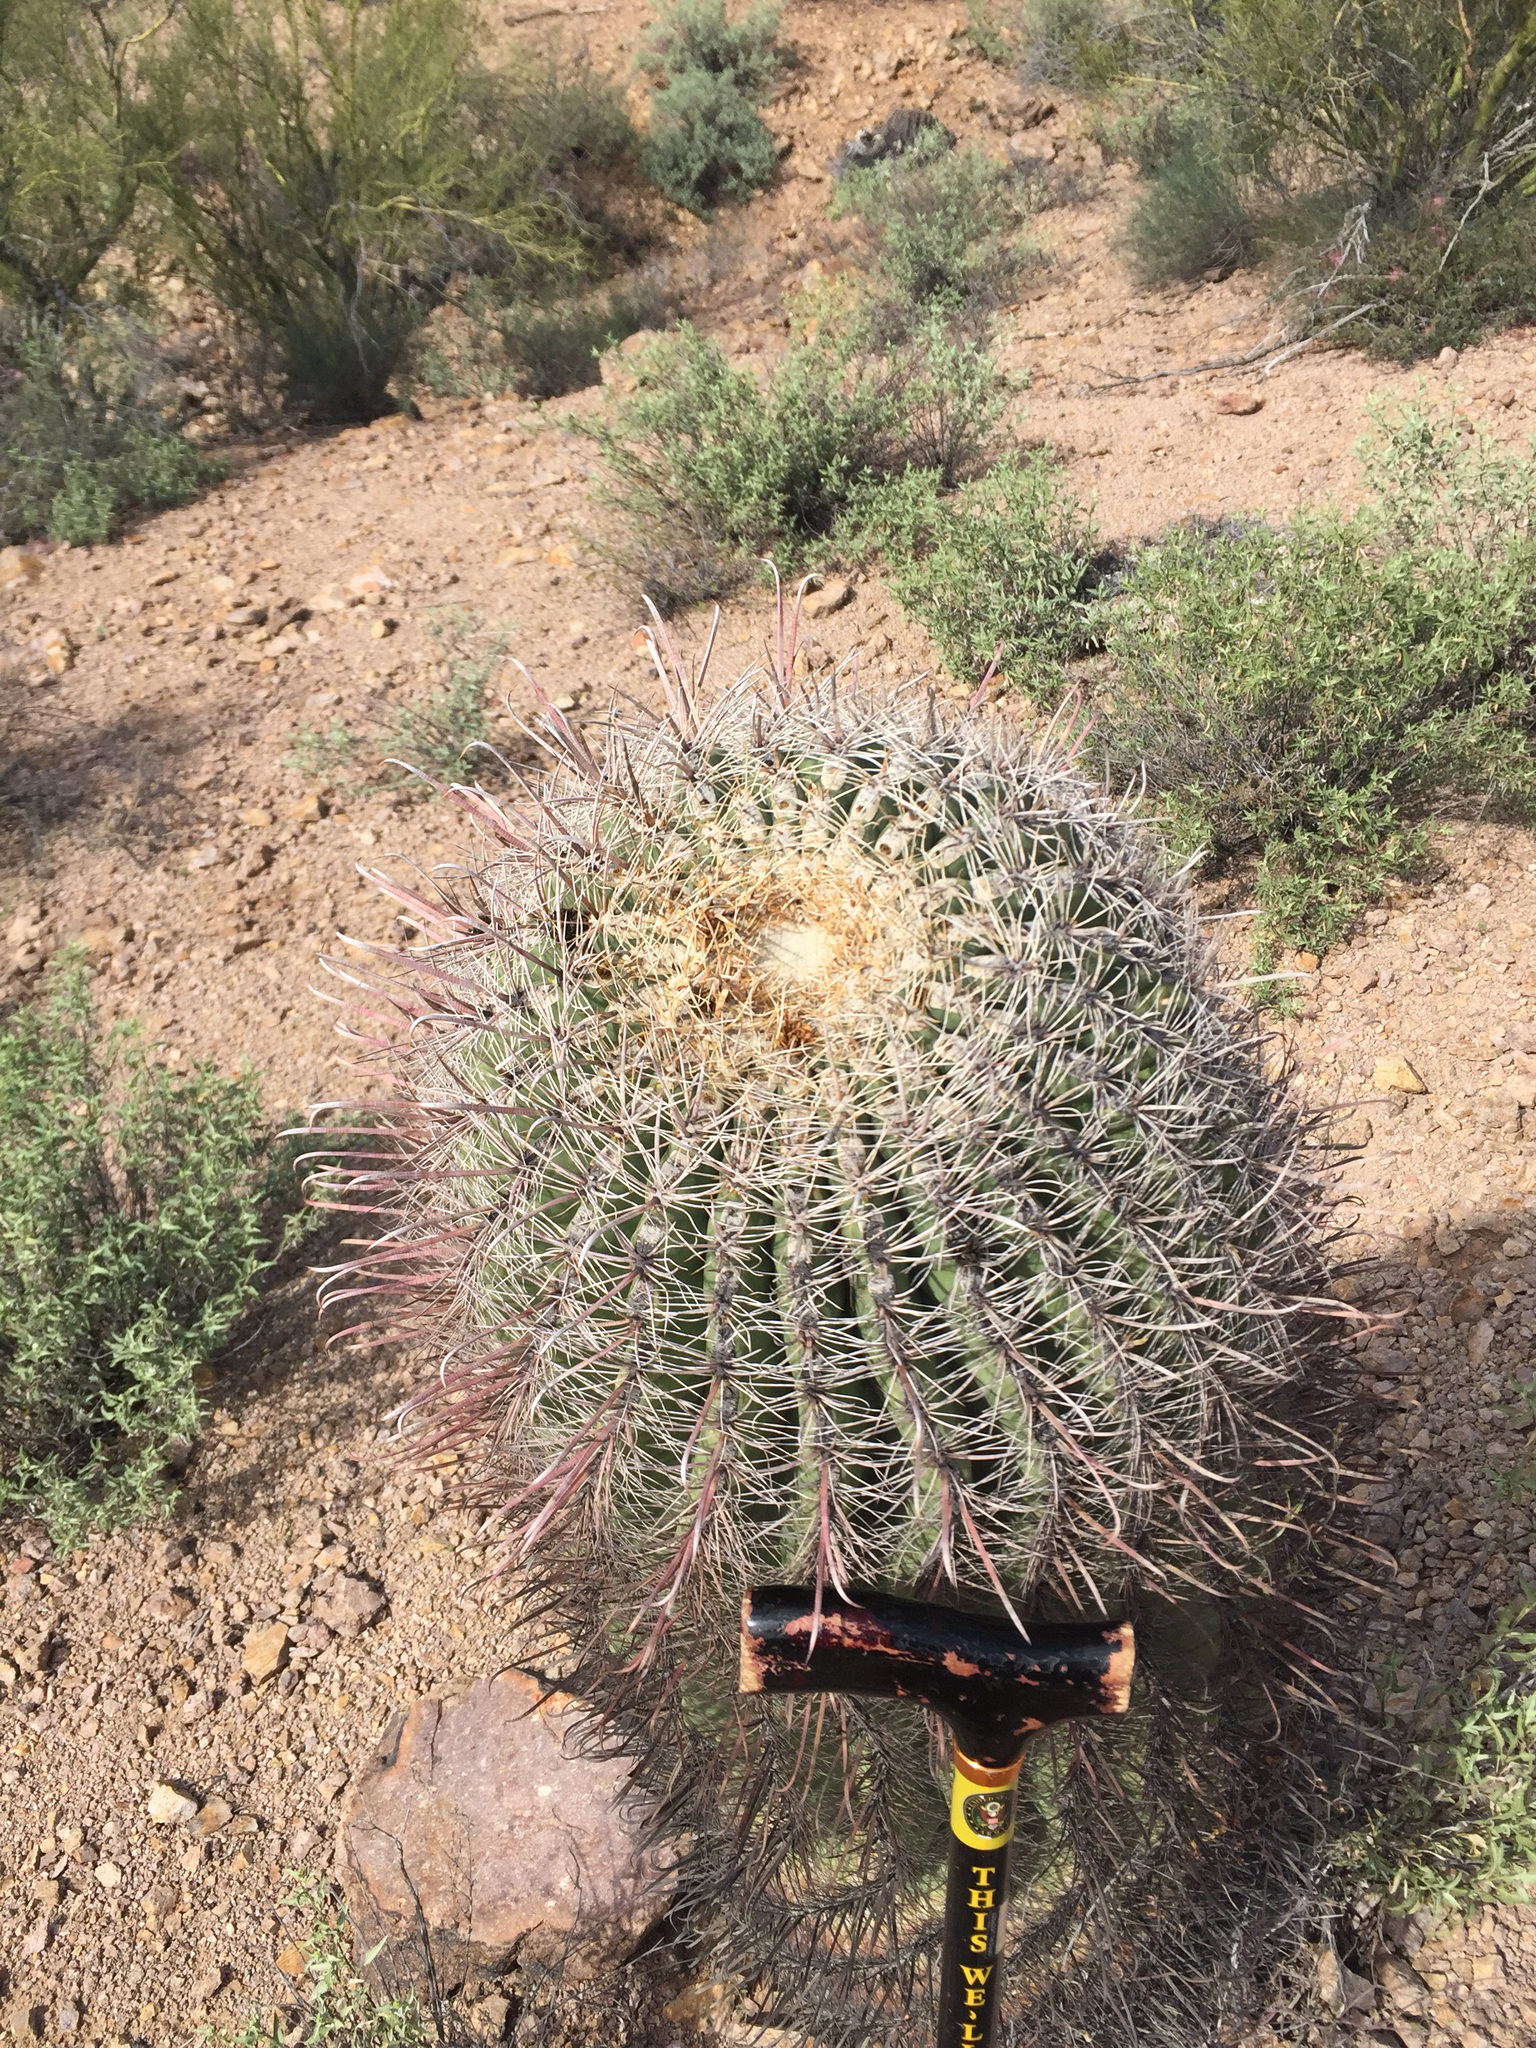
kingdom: Plantae
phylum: Tracheophyta
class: Magnoliopsida
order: Caryophyllales
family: Cactaceae
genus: Ferocactus
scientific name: Ferocactus cylindraceus
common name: California barrel cactus
